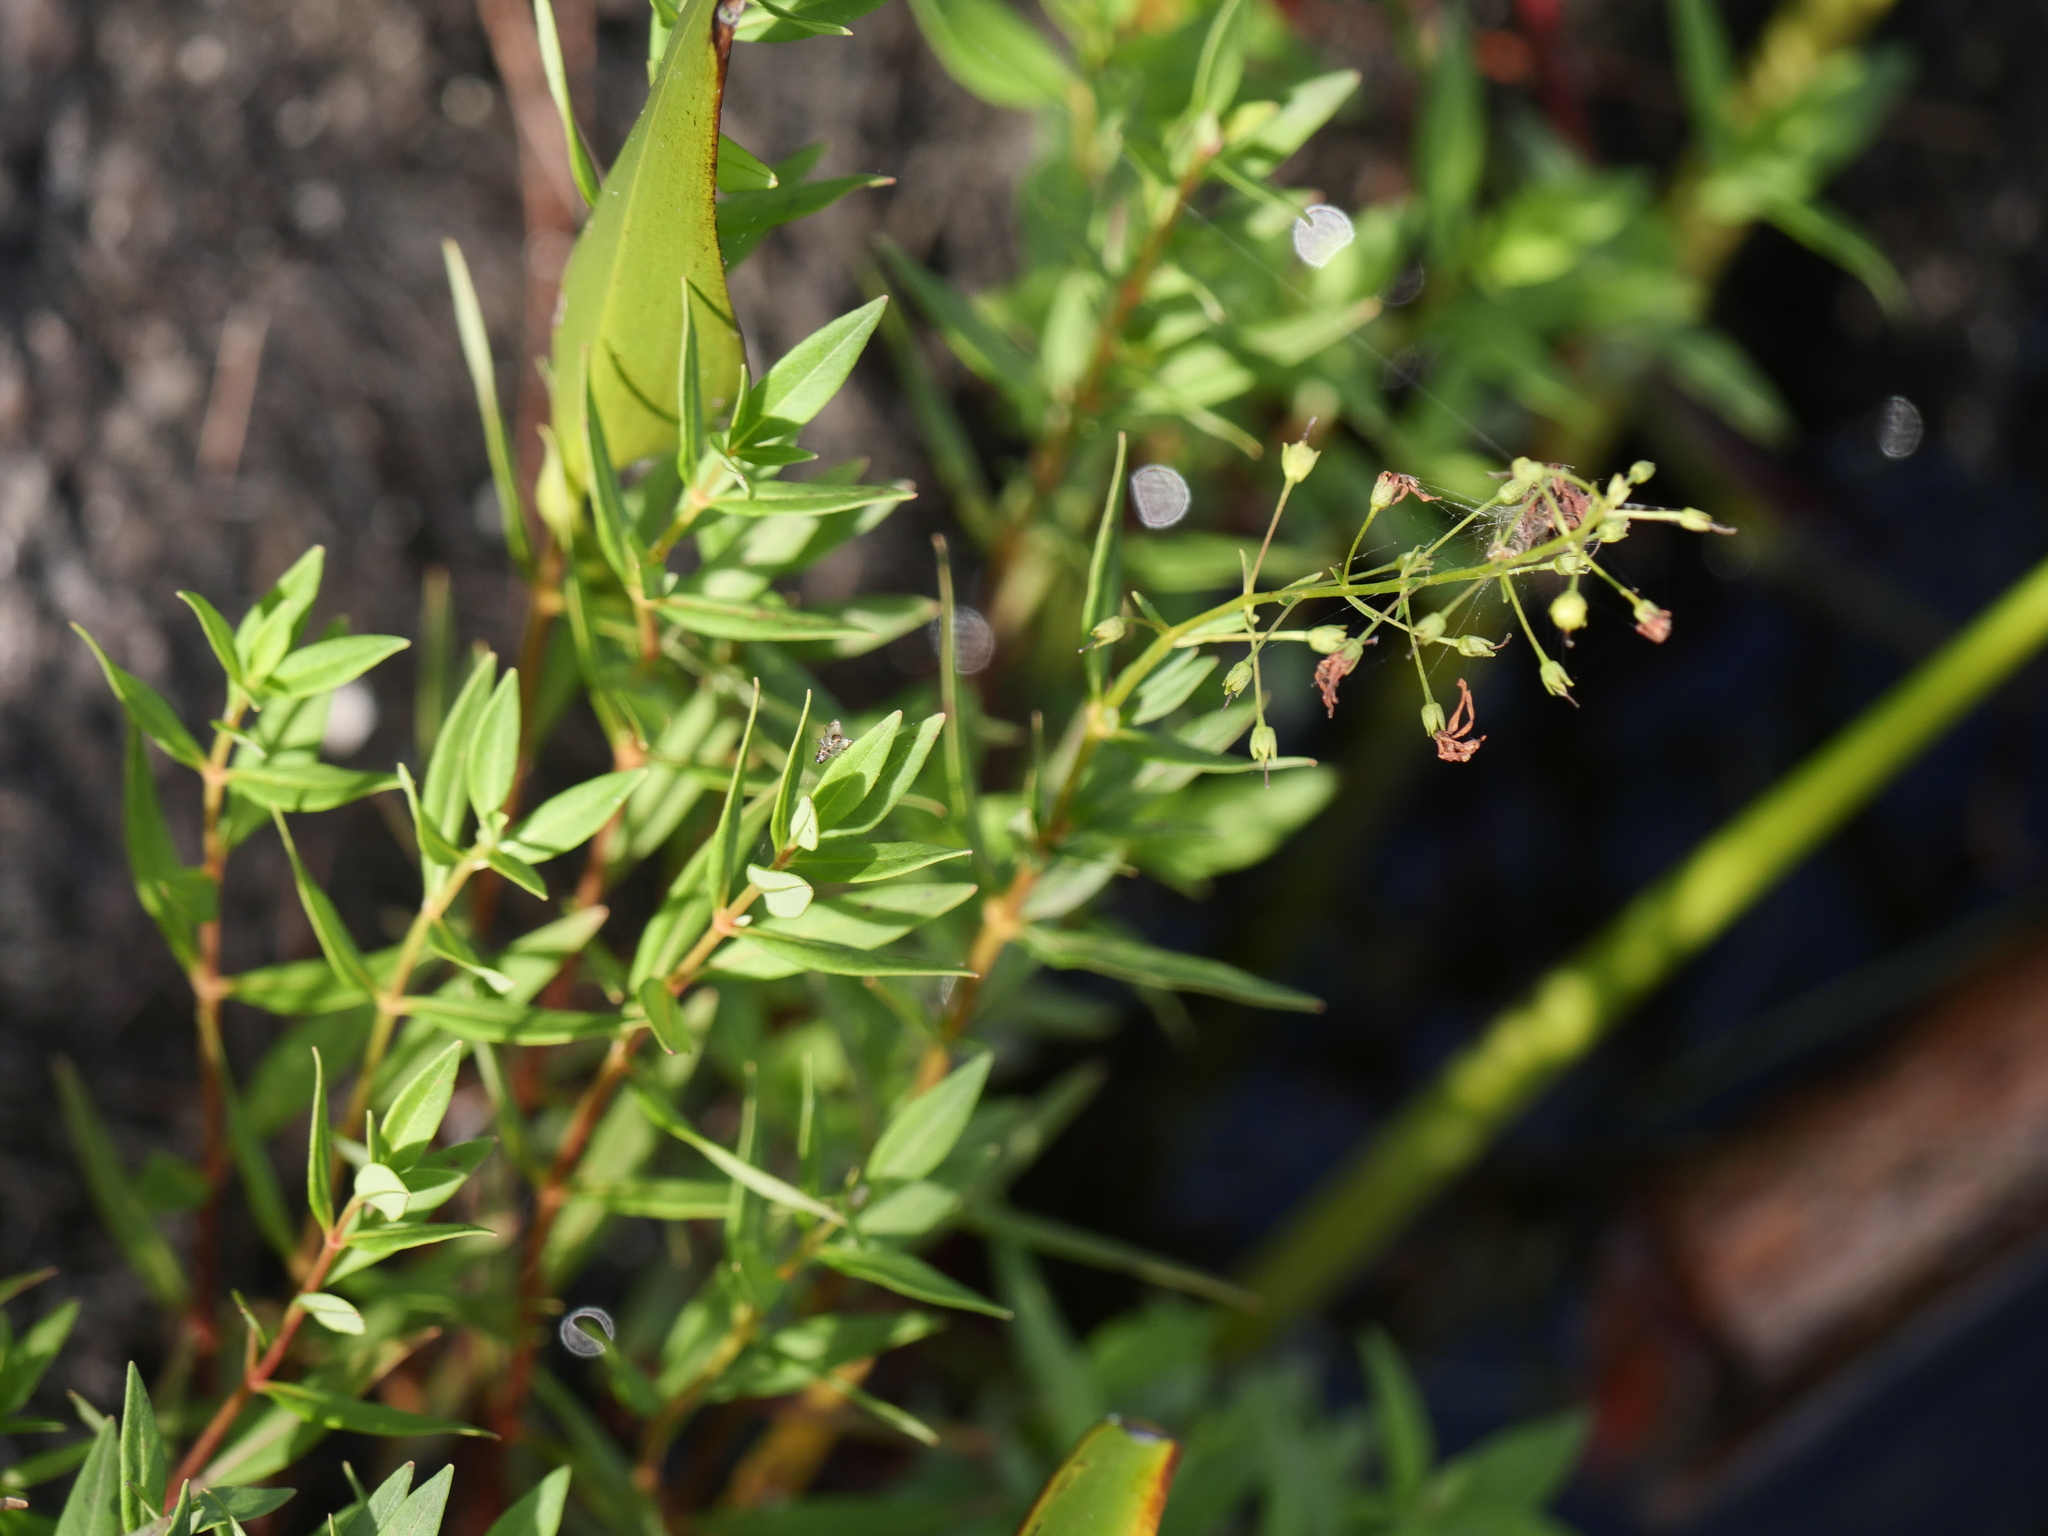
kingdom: Plantae
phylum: Tracheophyta
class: Magnoliopsida
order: Ericales
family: Primulaceae
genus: Lysimachia
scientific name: Lysimachia terrestris
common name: Lake loosestrife
